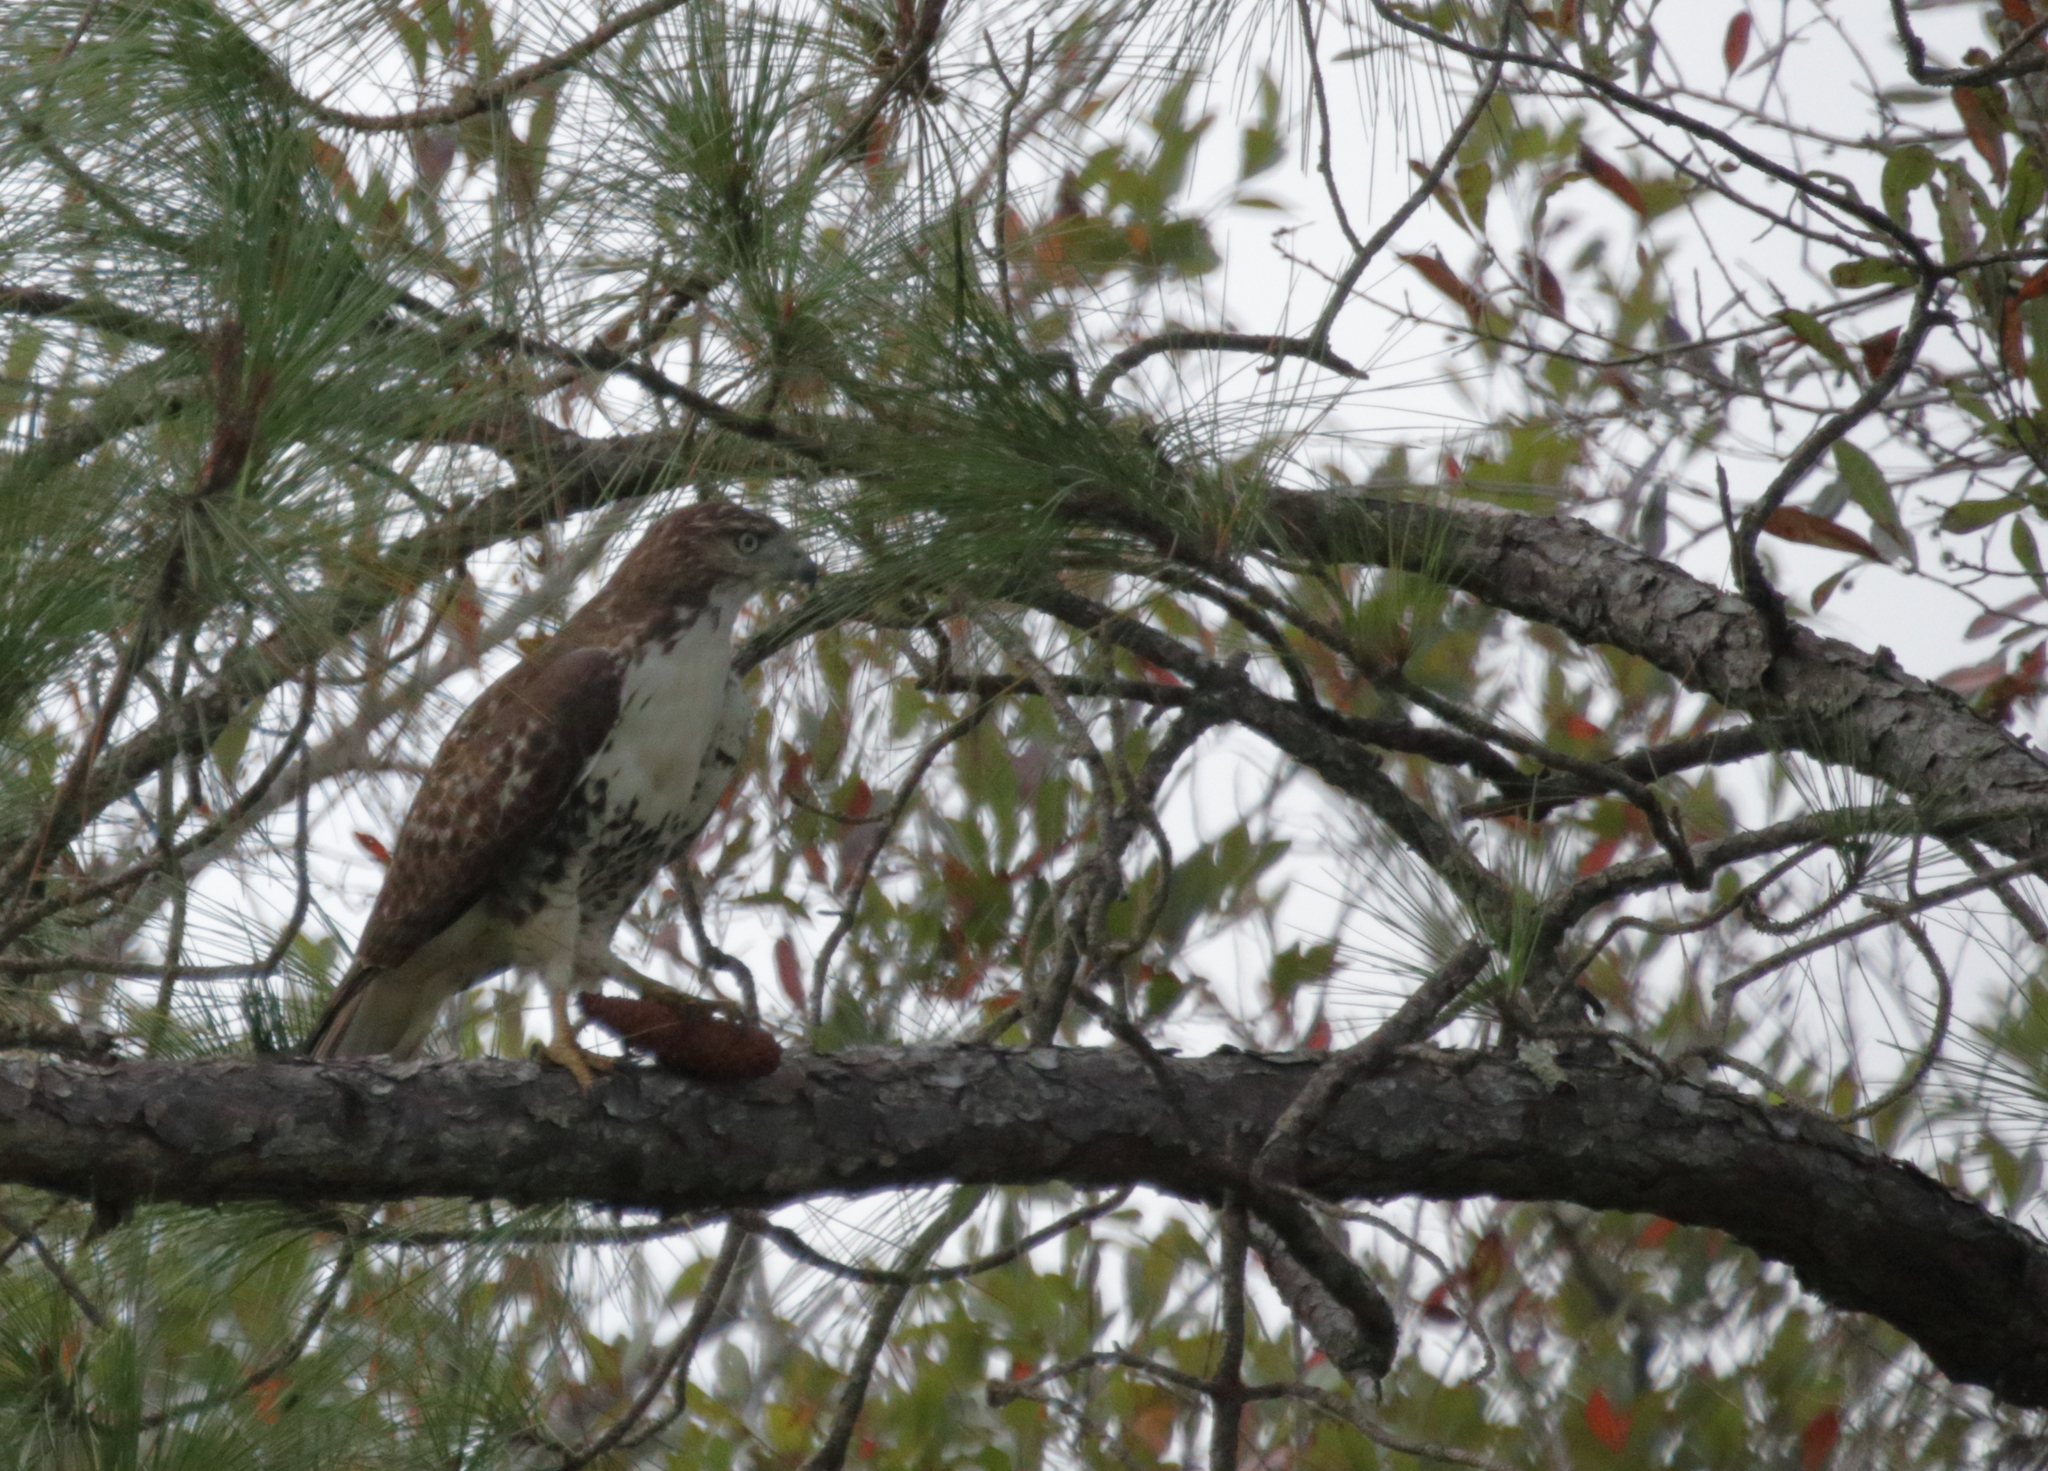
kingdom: Animalia
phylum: Chordata
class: Aves
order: Accipitriformes
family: Accipitridae
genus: Buteo
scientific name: Buteo jamaicensis
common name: Red-tailed hawk
